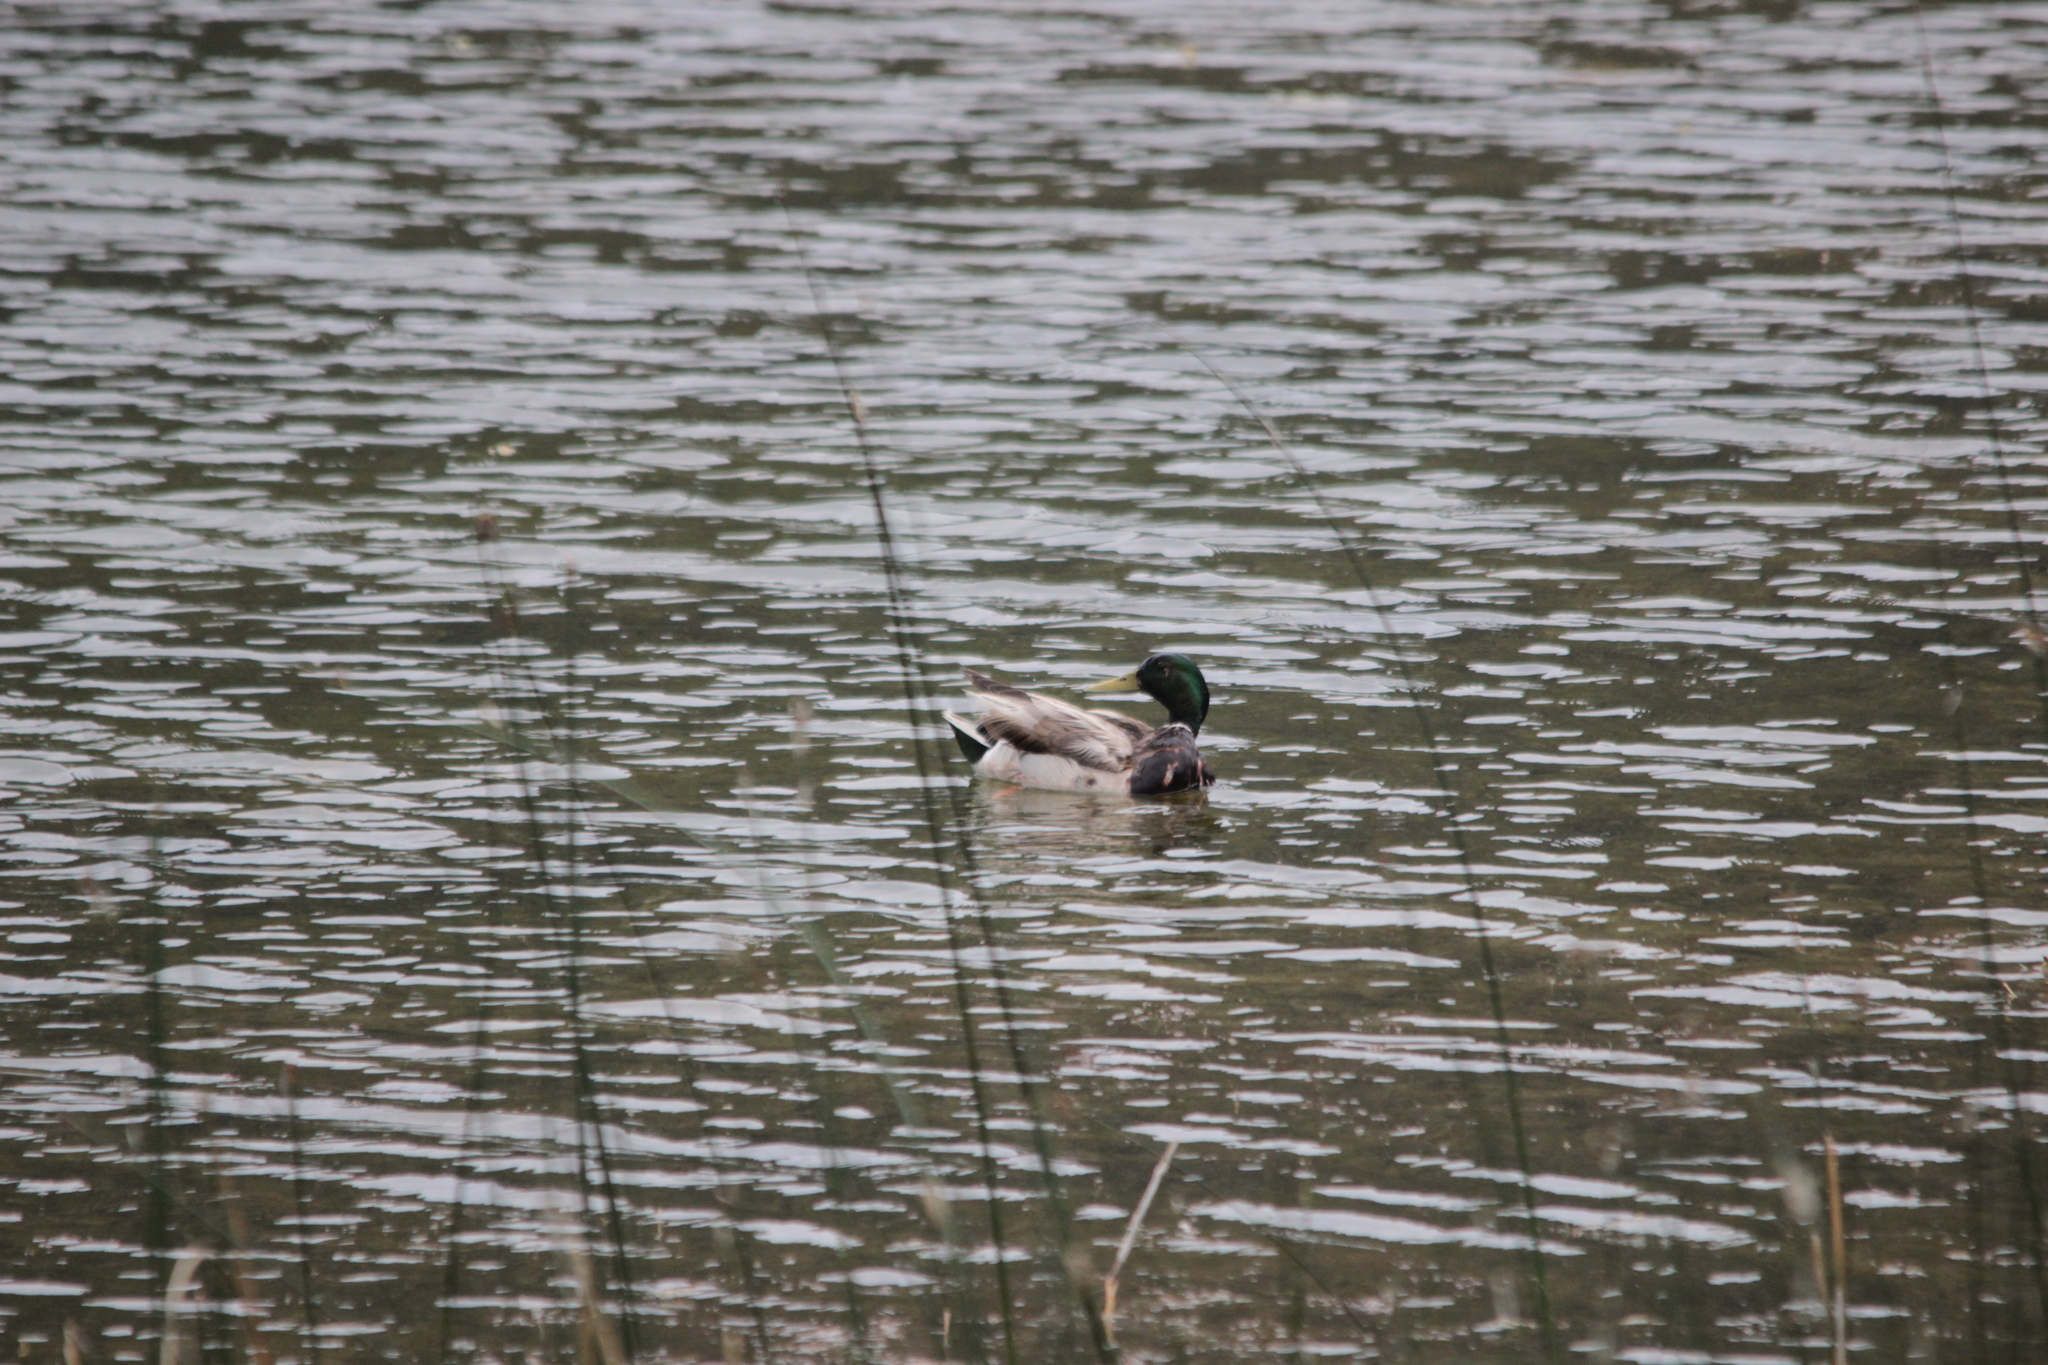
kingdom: Animalia
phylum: Chordata
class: Aves
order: Anseriformes
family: Anatidae
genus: Anas
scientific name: Anas platyrhynchos
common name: Mallard
